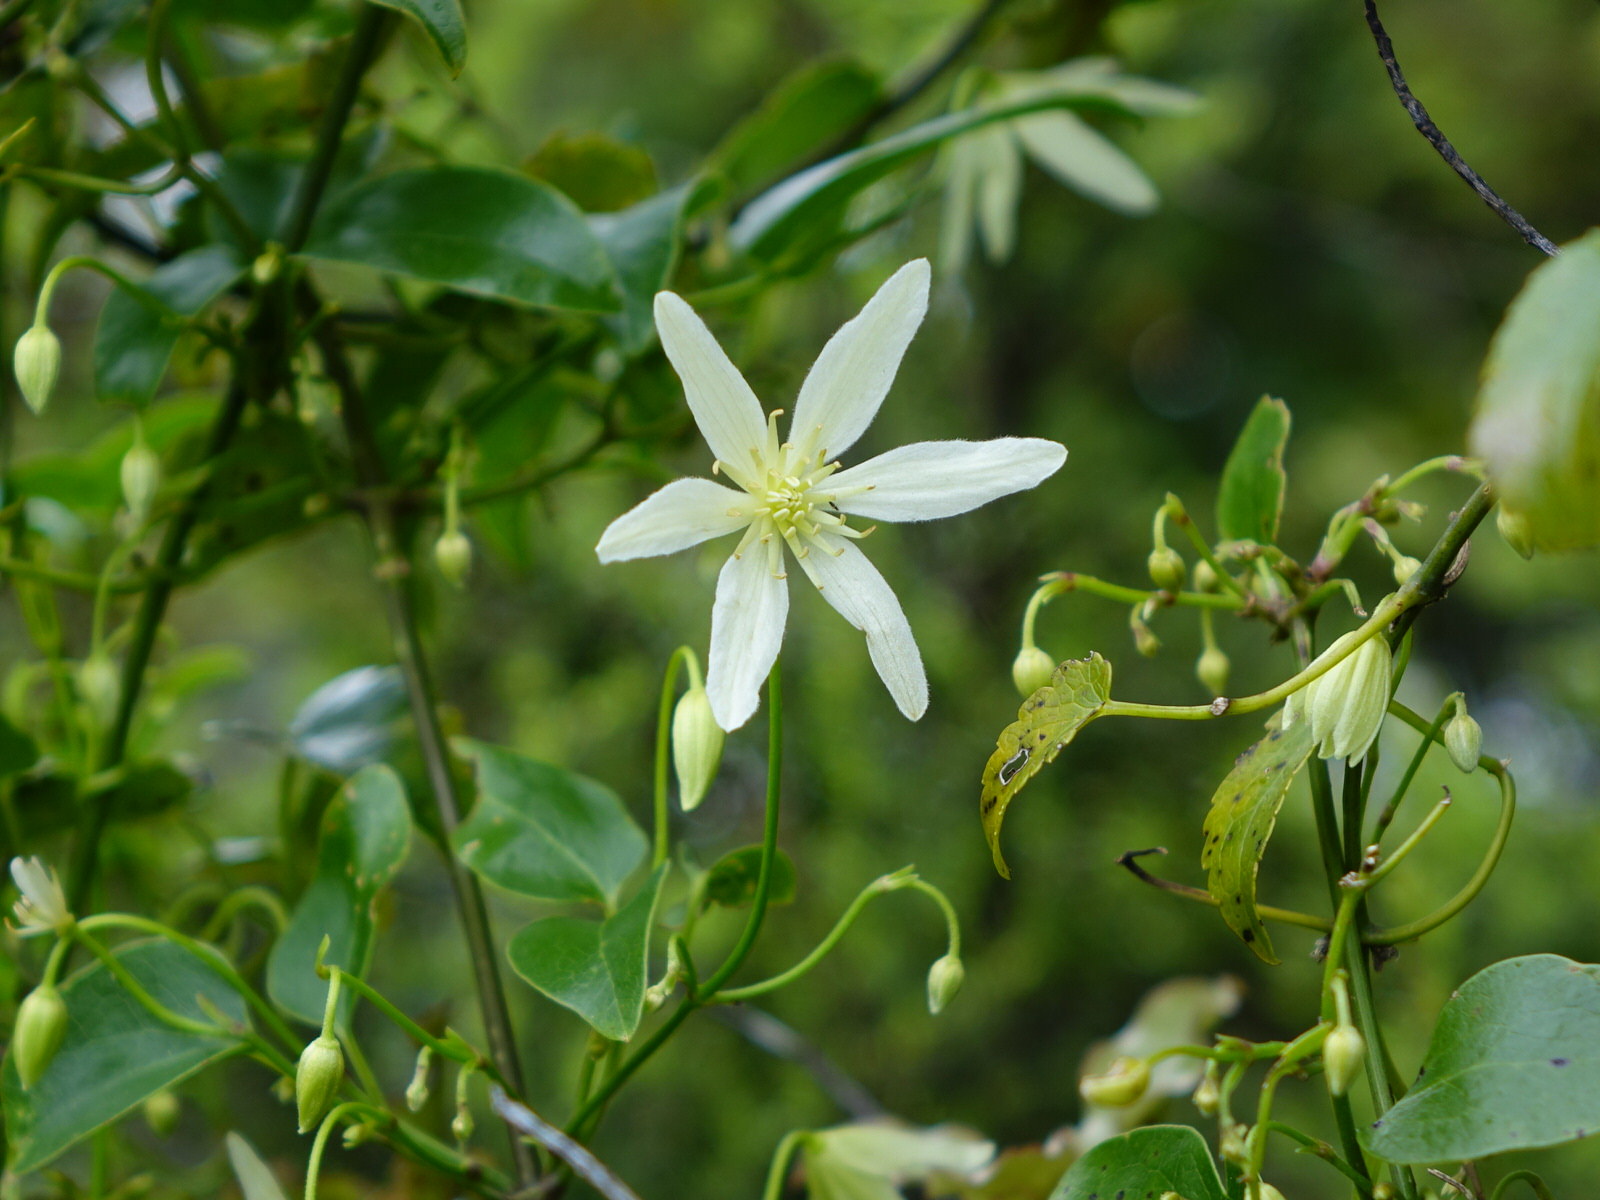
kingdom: Plantae
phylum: Tracheophyta
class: Magnoliopsida
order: Ranunculales
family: Ranunculaceae
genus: Clematis
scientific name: Clematis forsteri
